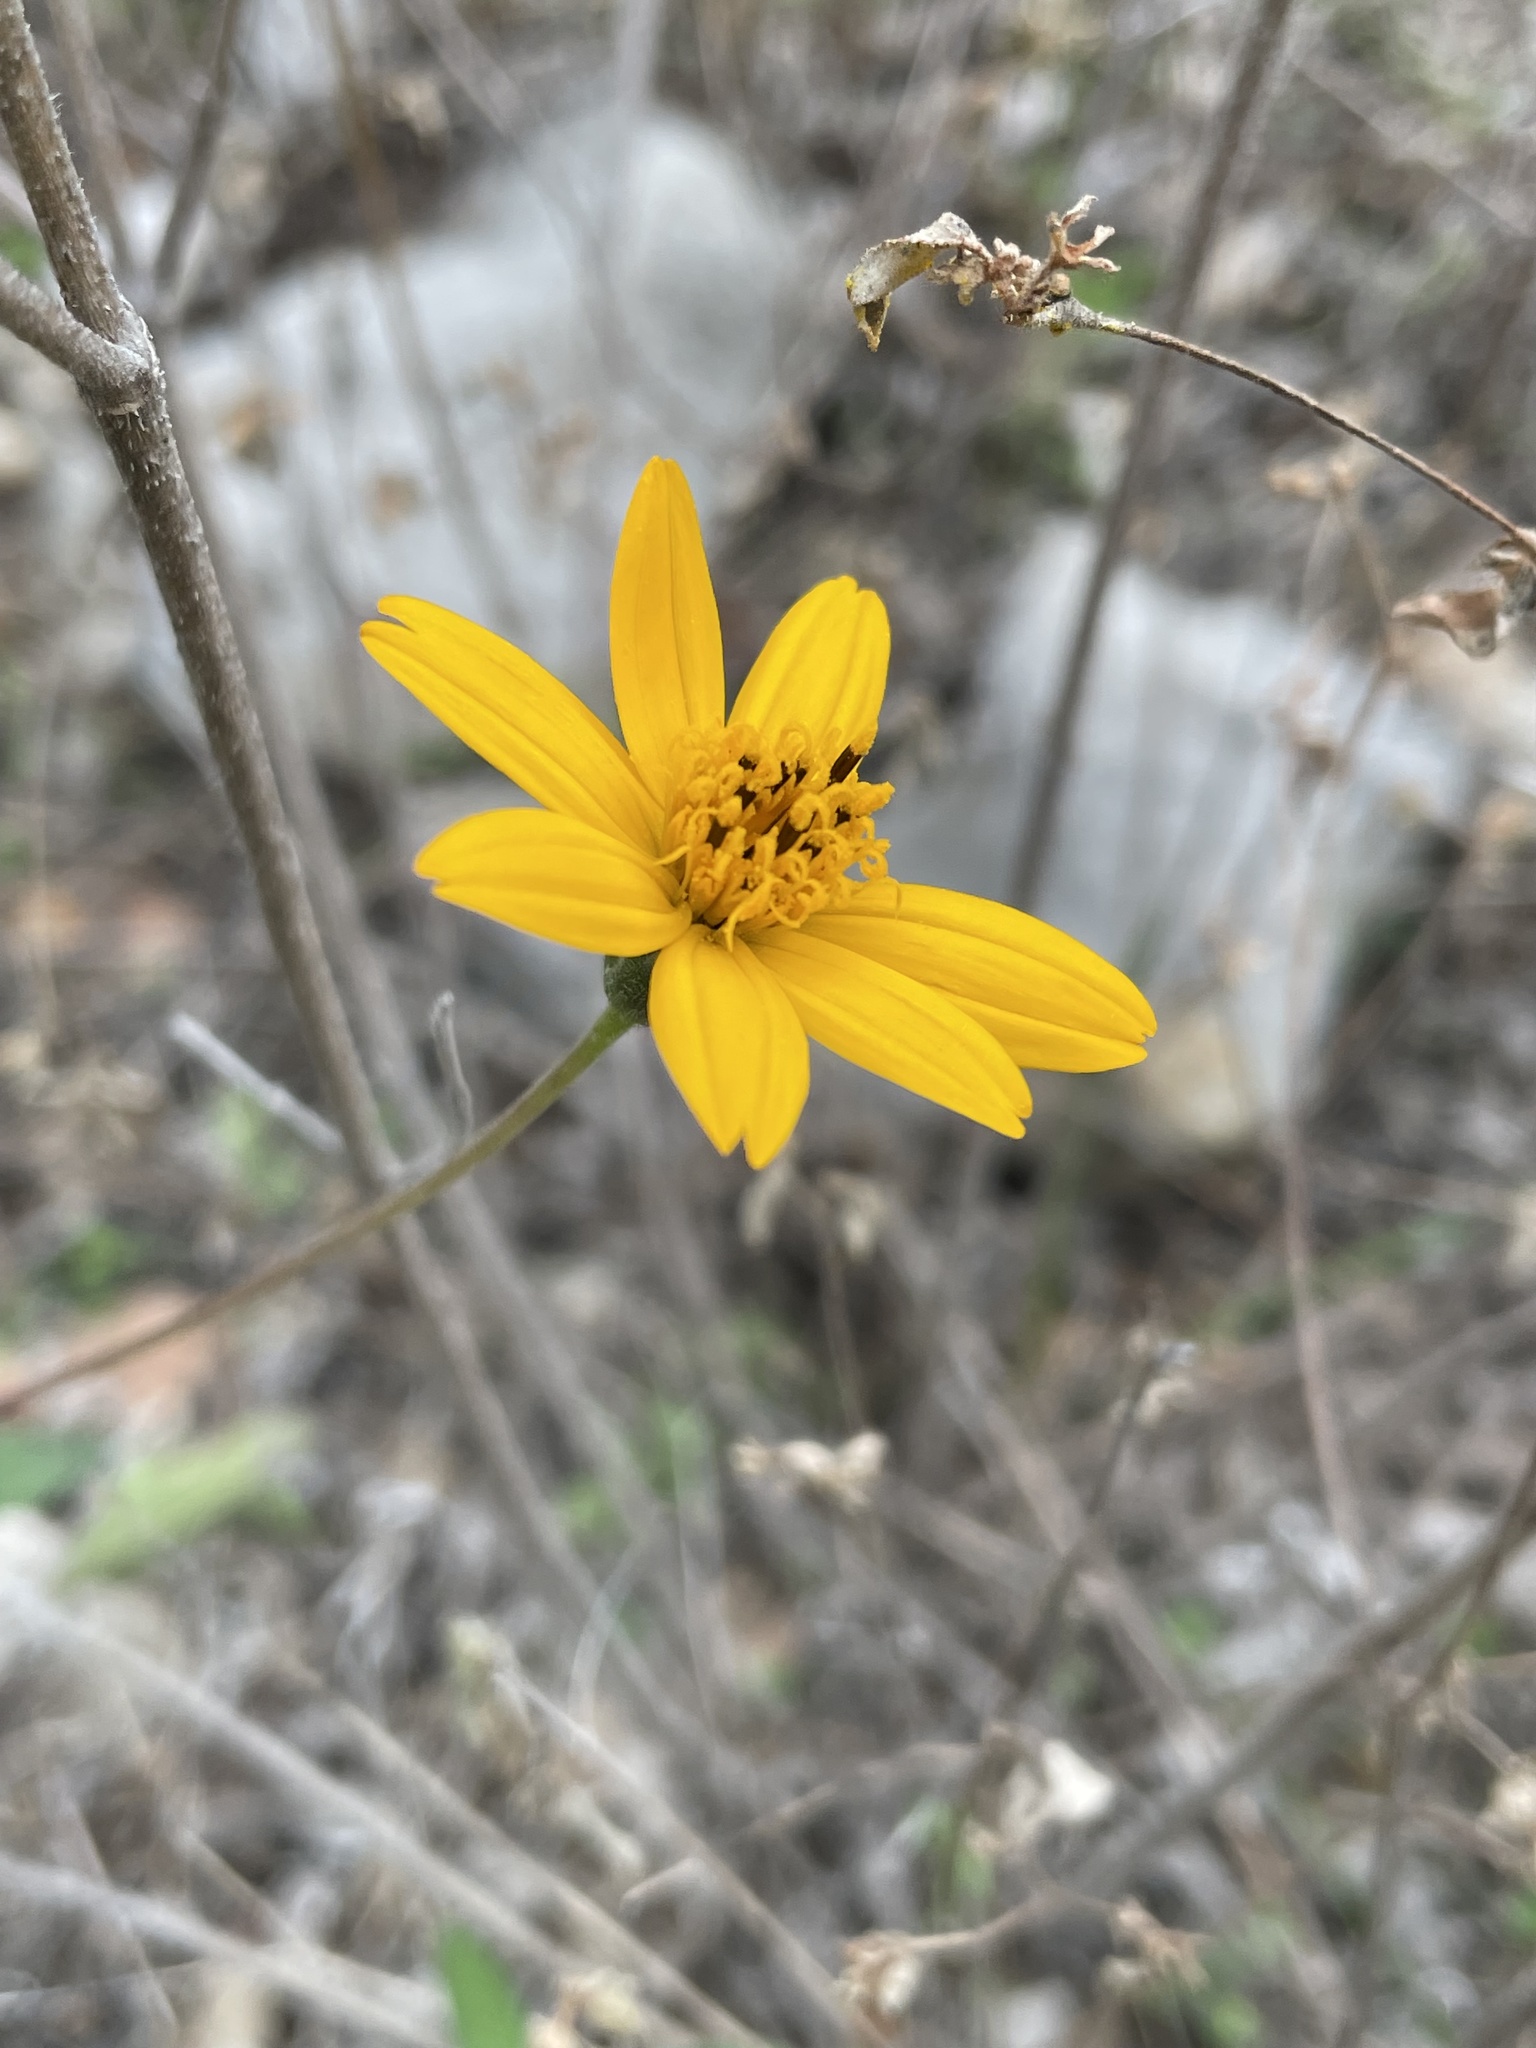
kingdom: Plantae
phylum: Tracheophyta
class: Magnoliopsida
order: Asterales
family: Asteraceae
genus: Wedelia
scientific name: Wedelia acapulcensis
